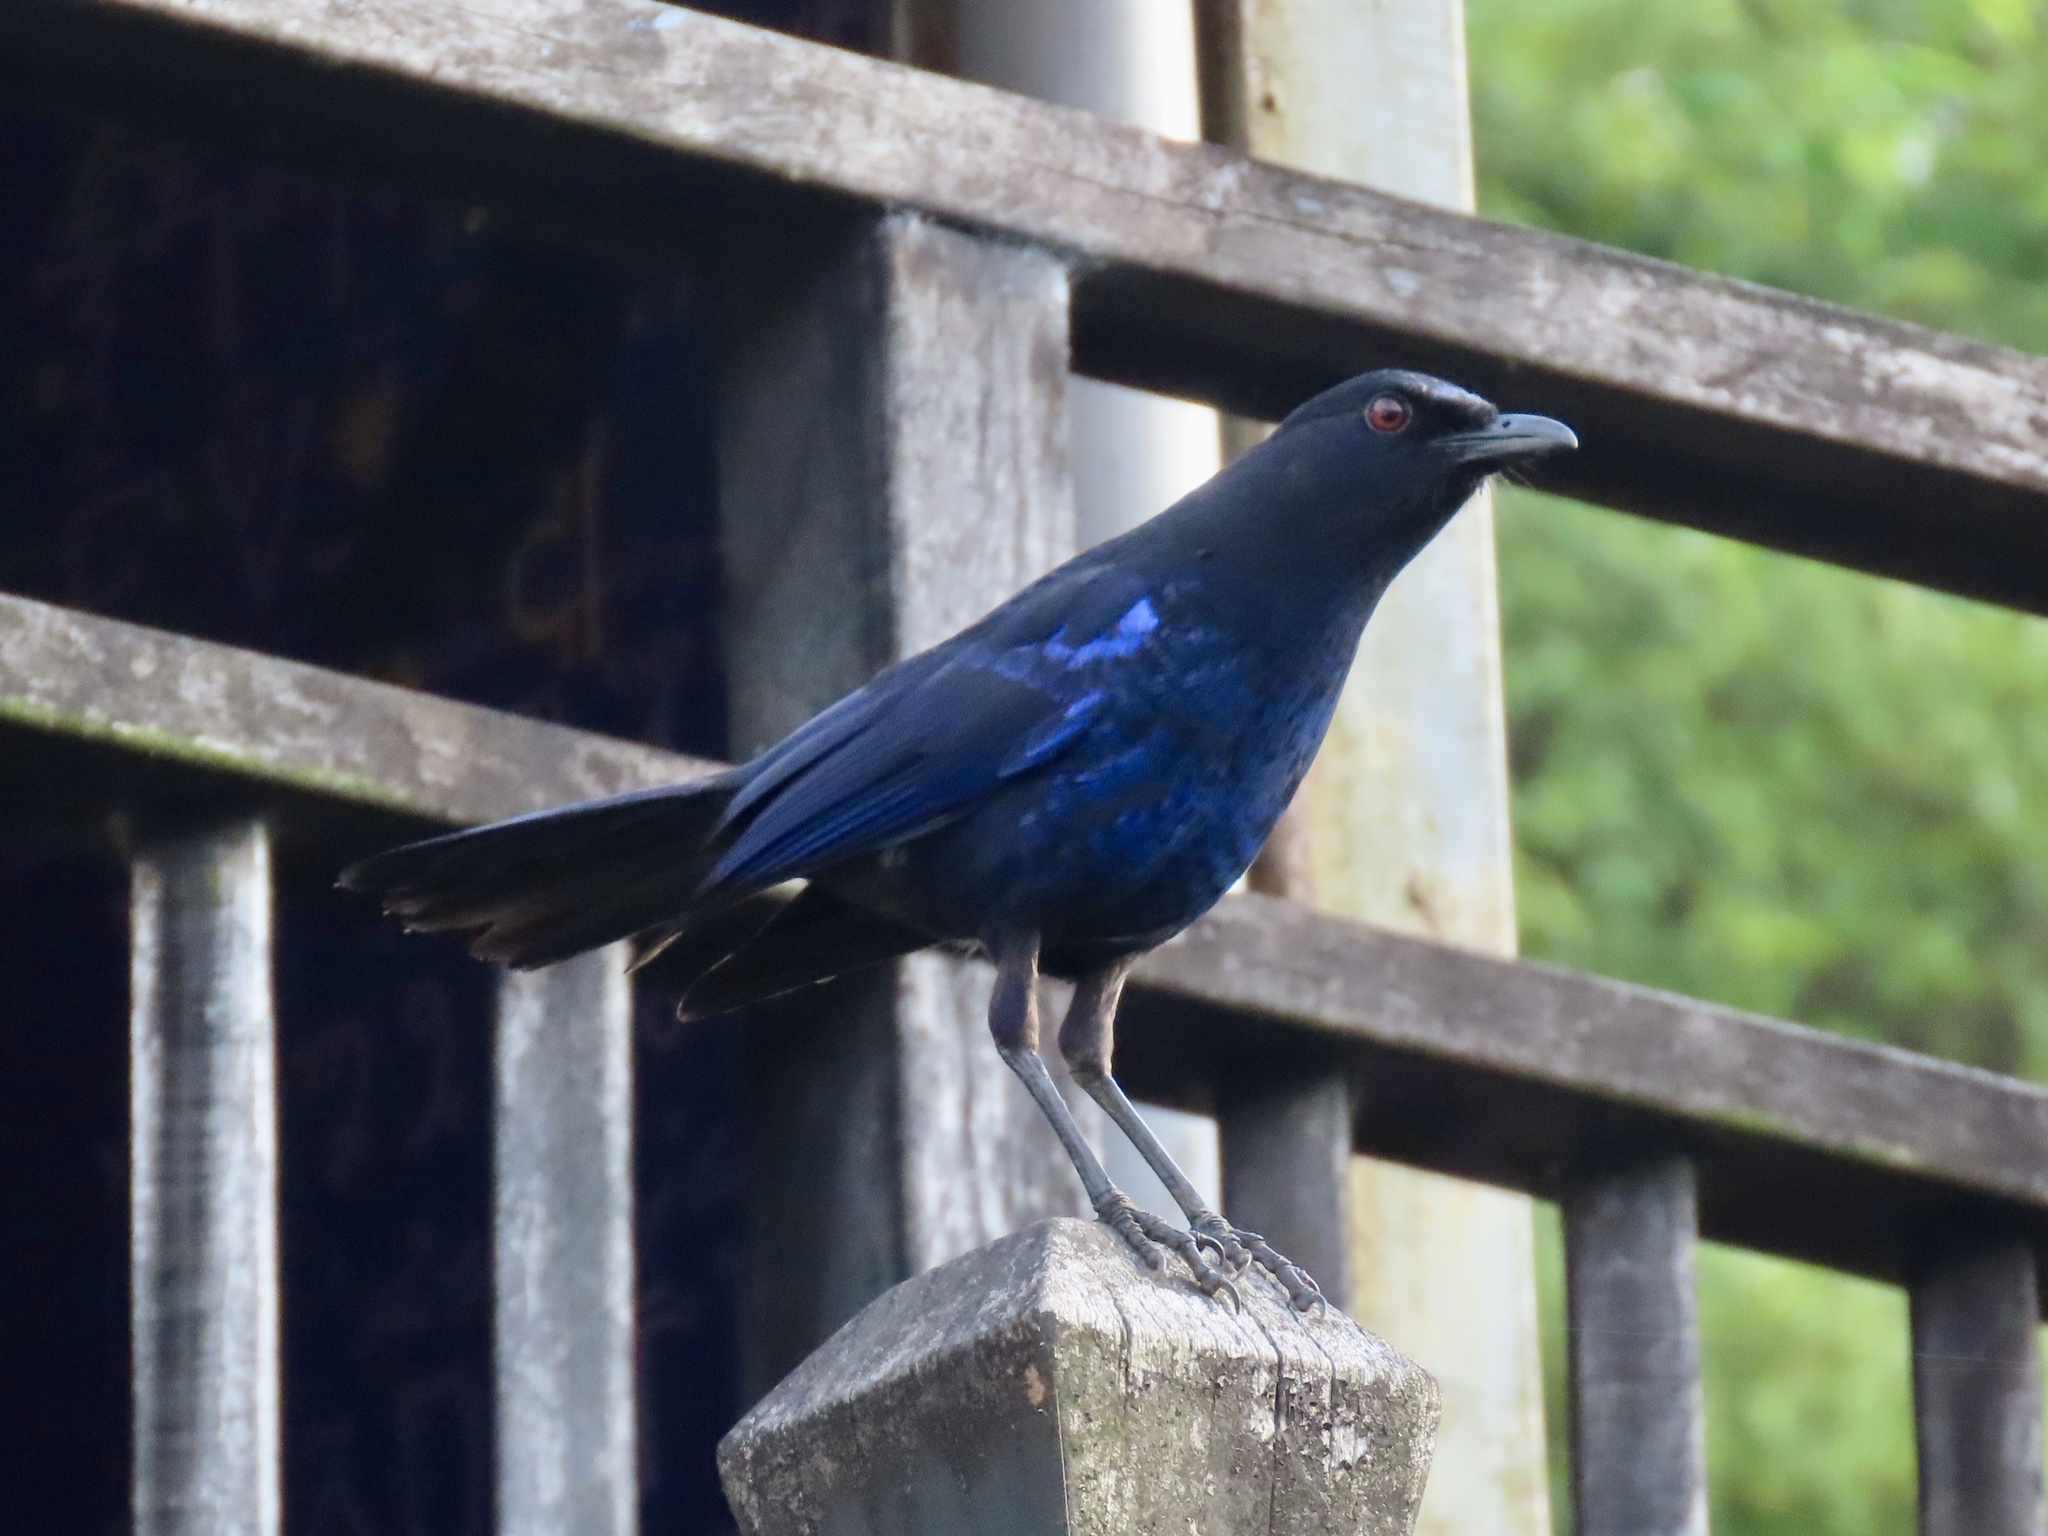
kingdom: Animalia
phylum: Chordata
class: Aves
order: Passeriformes
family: Muscicapidae
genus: Myophonus
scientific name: Myophonus insularis
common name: Taiwan whistling-thrush
